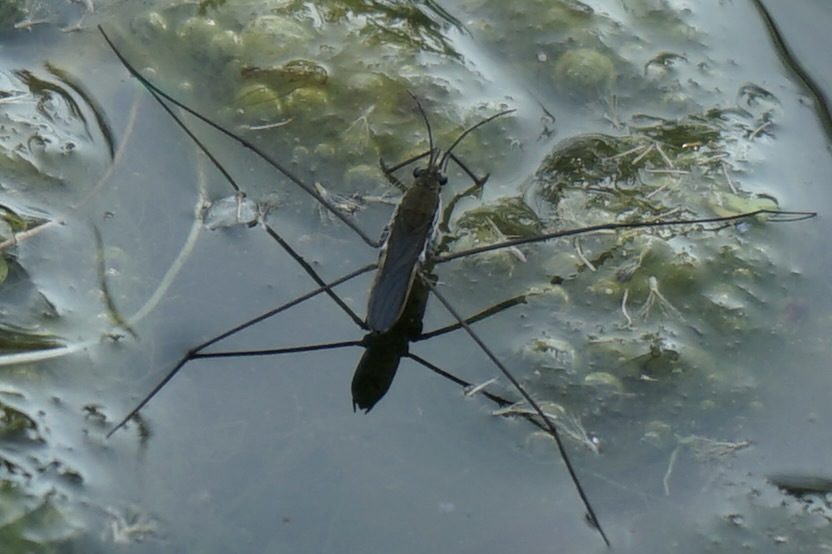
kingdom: Animalia
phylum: Arthropoda
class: Insecta
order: Hemiptera
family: Gerridae
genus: Aquarius
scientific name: Aquarius paludum
